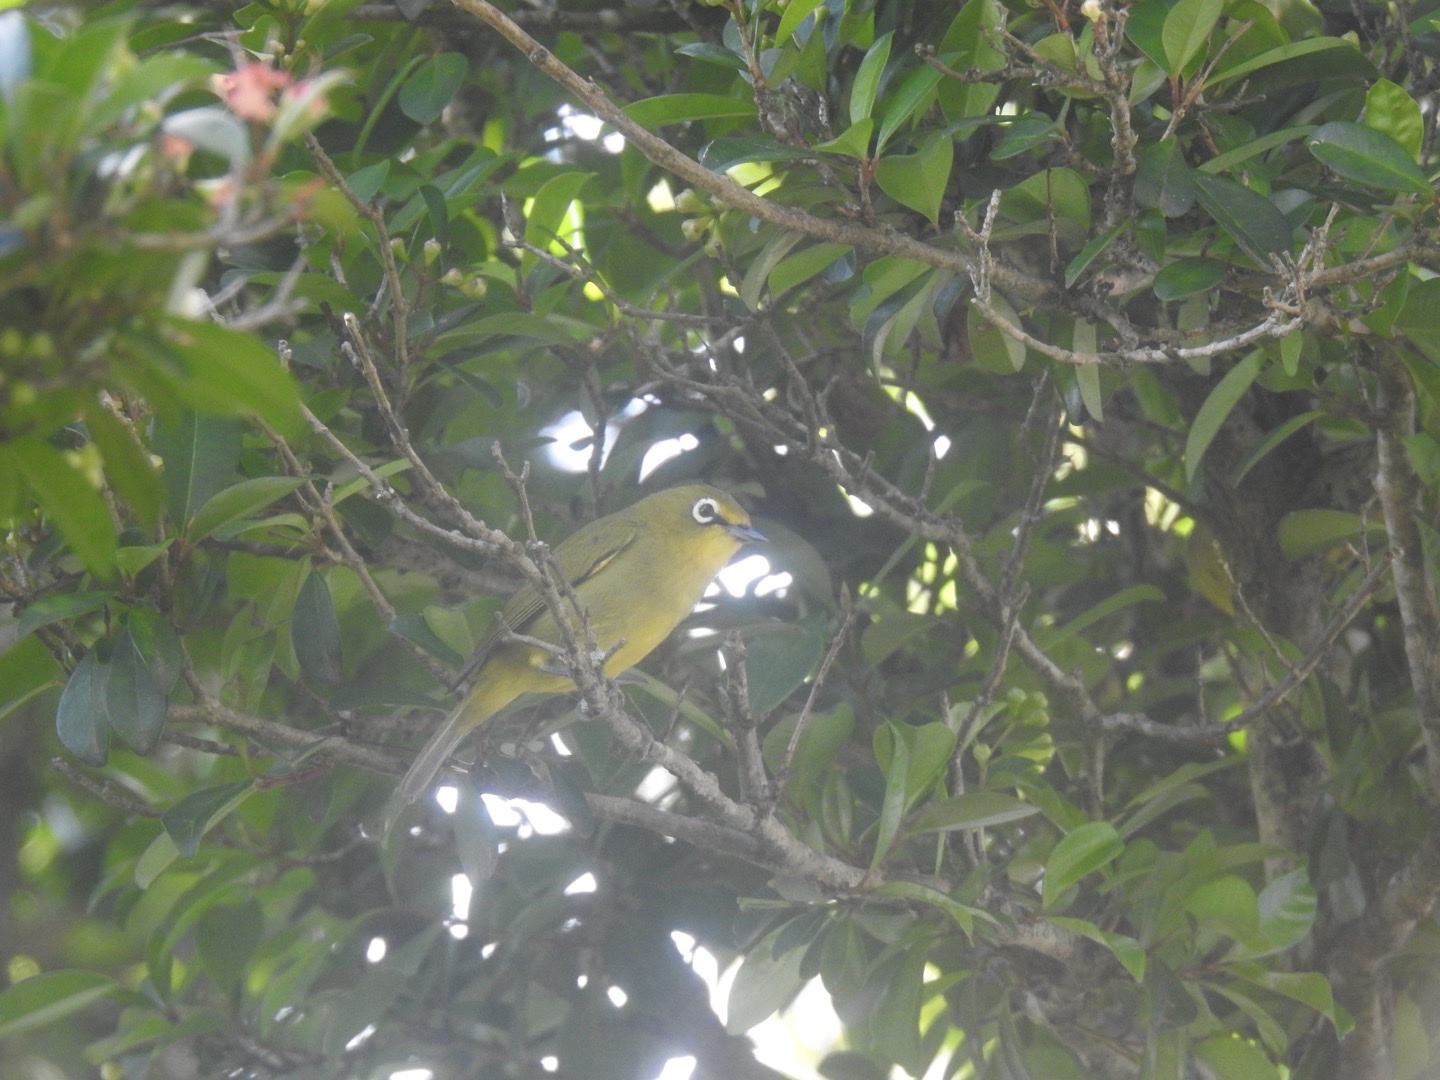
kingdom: Animalia
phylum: Chordata
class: Aves
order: Passeriformes
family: Zosteropidae
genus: Zosterops
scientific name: Zosterops virens
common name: Cape white-eye
